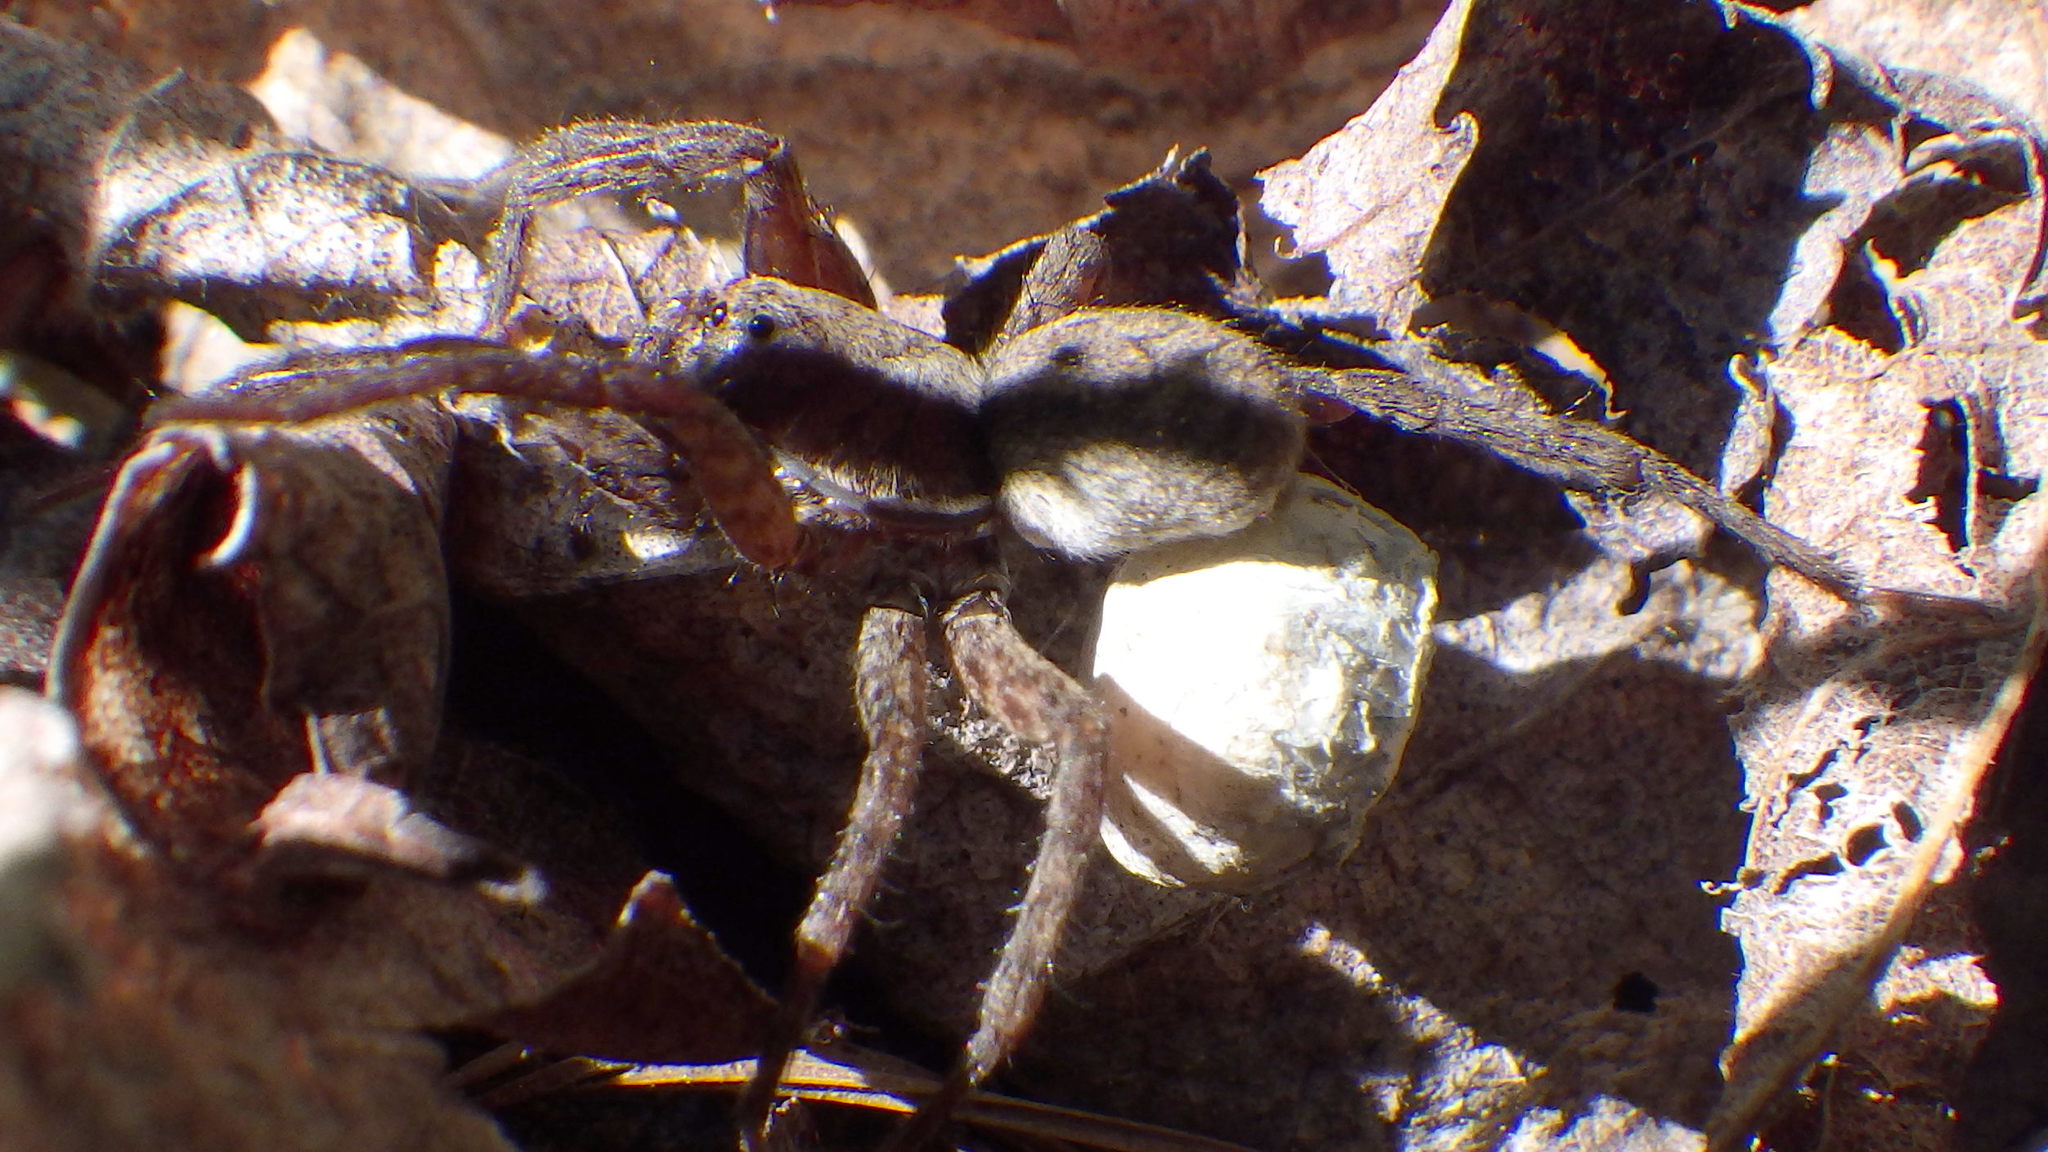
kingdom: Animalia
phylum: Arthropoda
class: Arachnida
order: Araneae
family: Lycosidae
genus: Hogna
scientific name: Hogna frondicola
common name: Forest wolf spider
